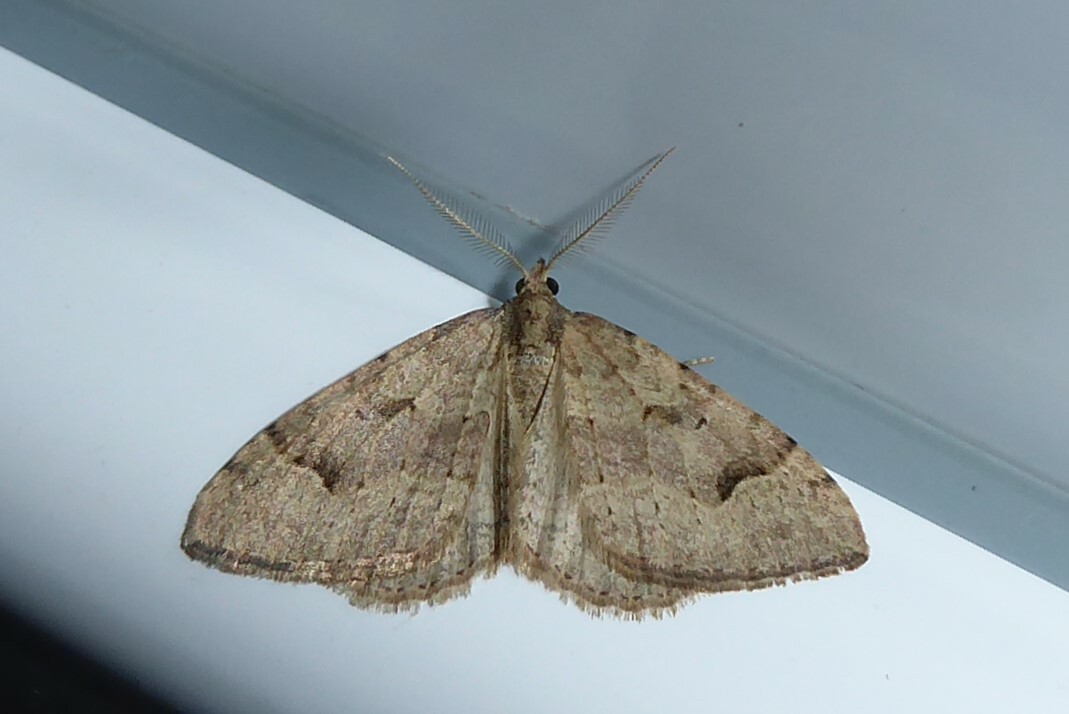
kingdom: Animalia
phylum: Arthropoda
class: Insecta
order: Lepidoptera
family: Geometridae
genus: Epyaxa
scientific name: Epyaxa rosearia
